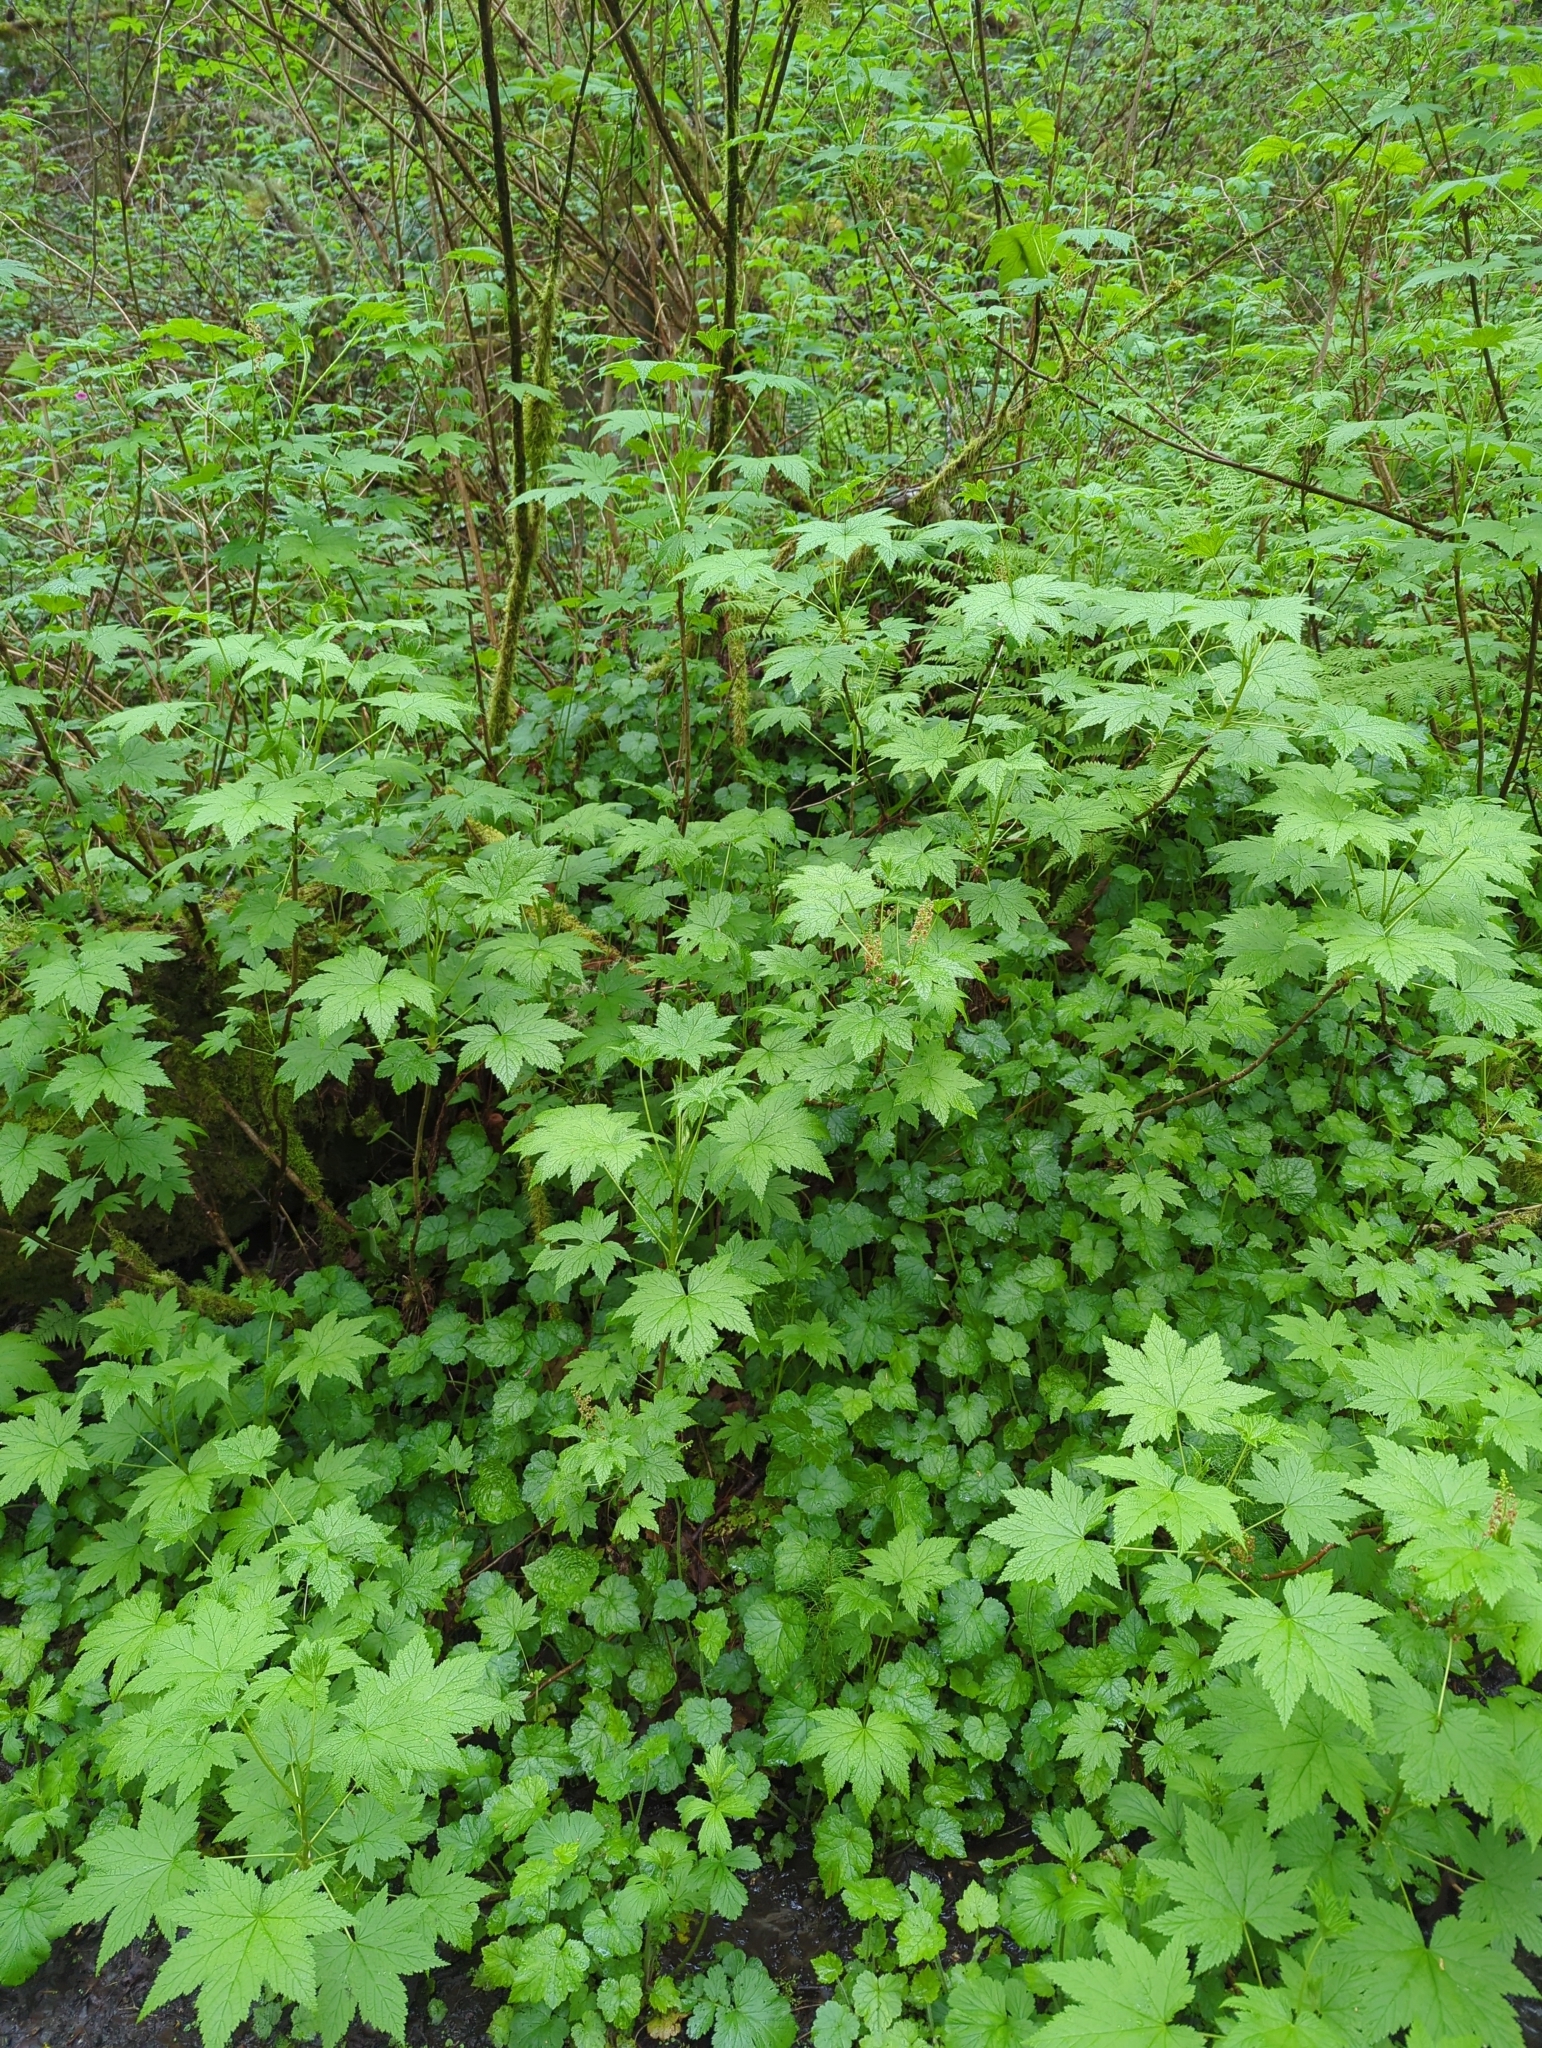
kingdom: Plantae
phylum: Tracheophyta
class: Magnoliopsida
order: Saxifragales
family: Grossulariaceae
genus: Ribes
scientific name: Ribes bracteosum
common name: California black currant
